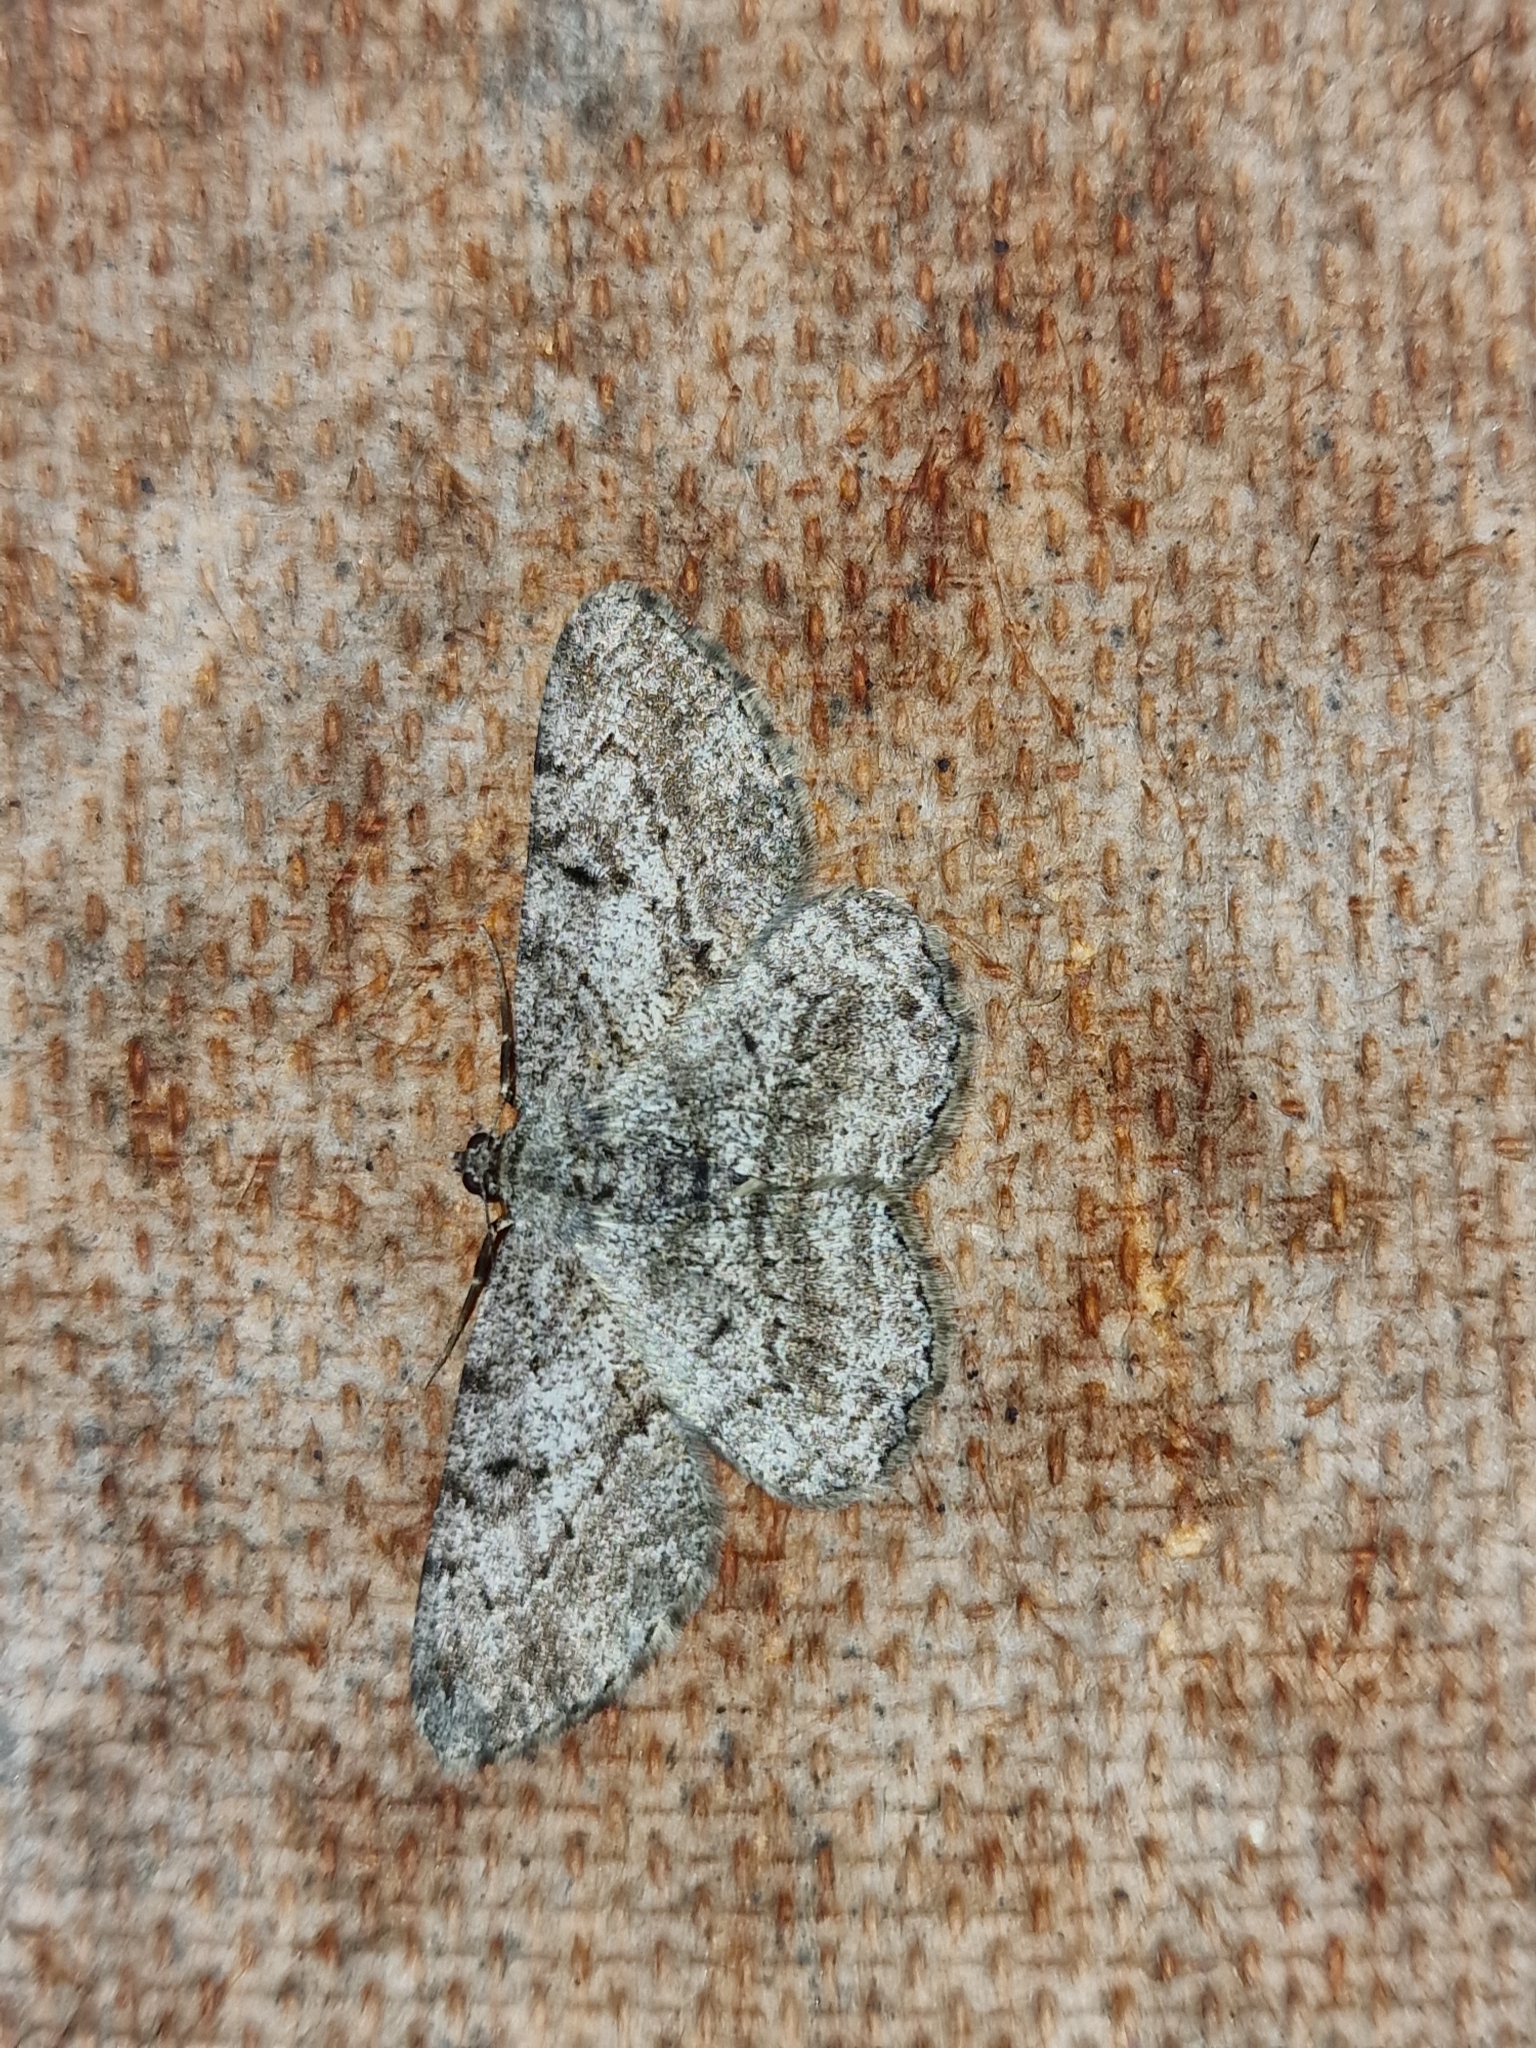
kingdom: Animalia
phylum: Arthropoda
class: Insecta
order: Lepidoptera
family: Geometridae
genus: Peribatodes
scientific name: Peribatodes rhomboidaria
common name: Willow beauty
